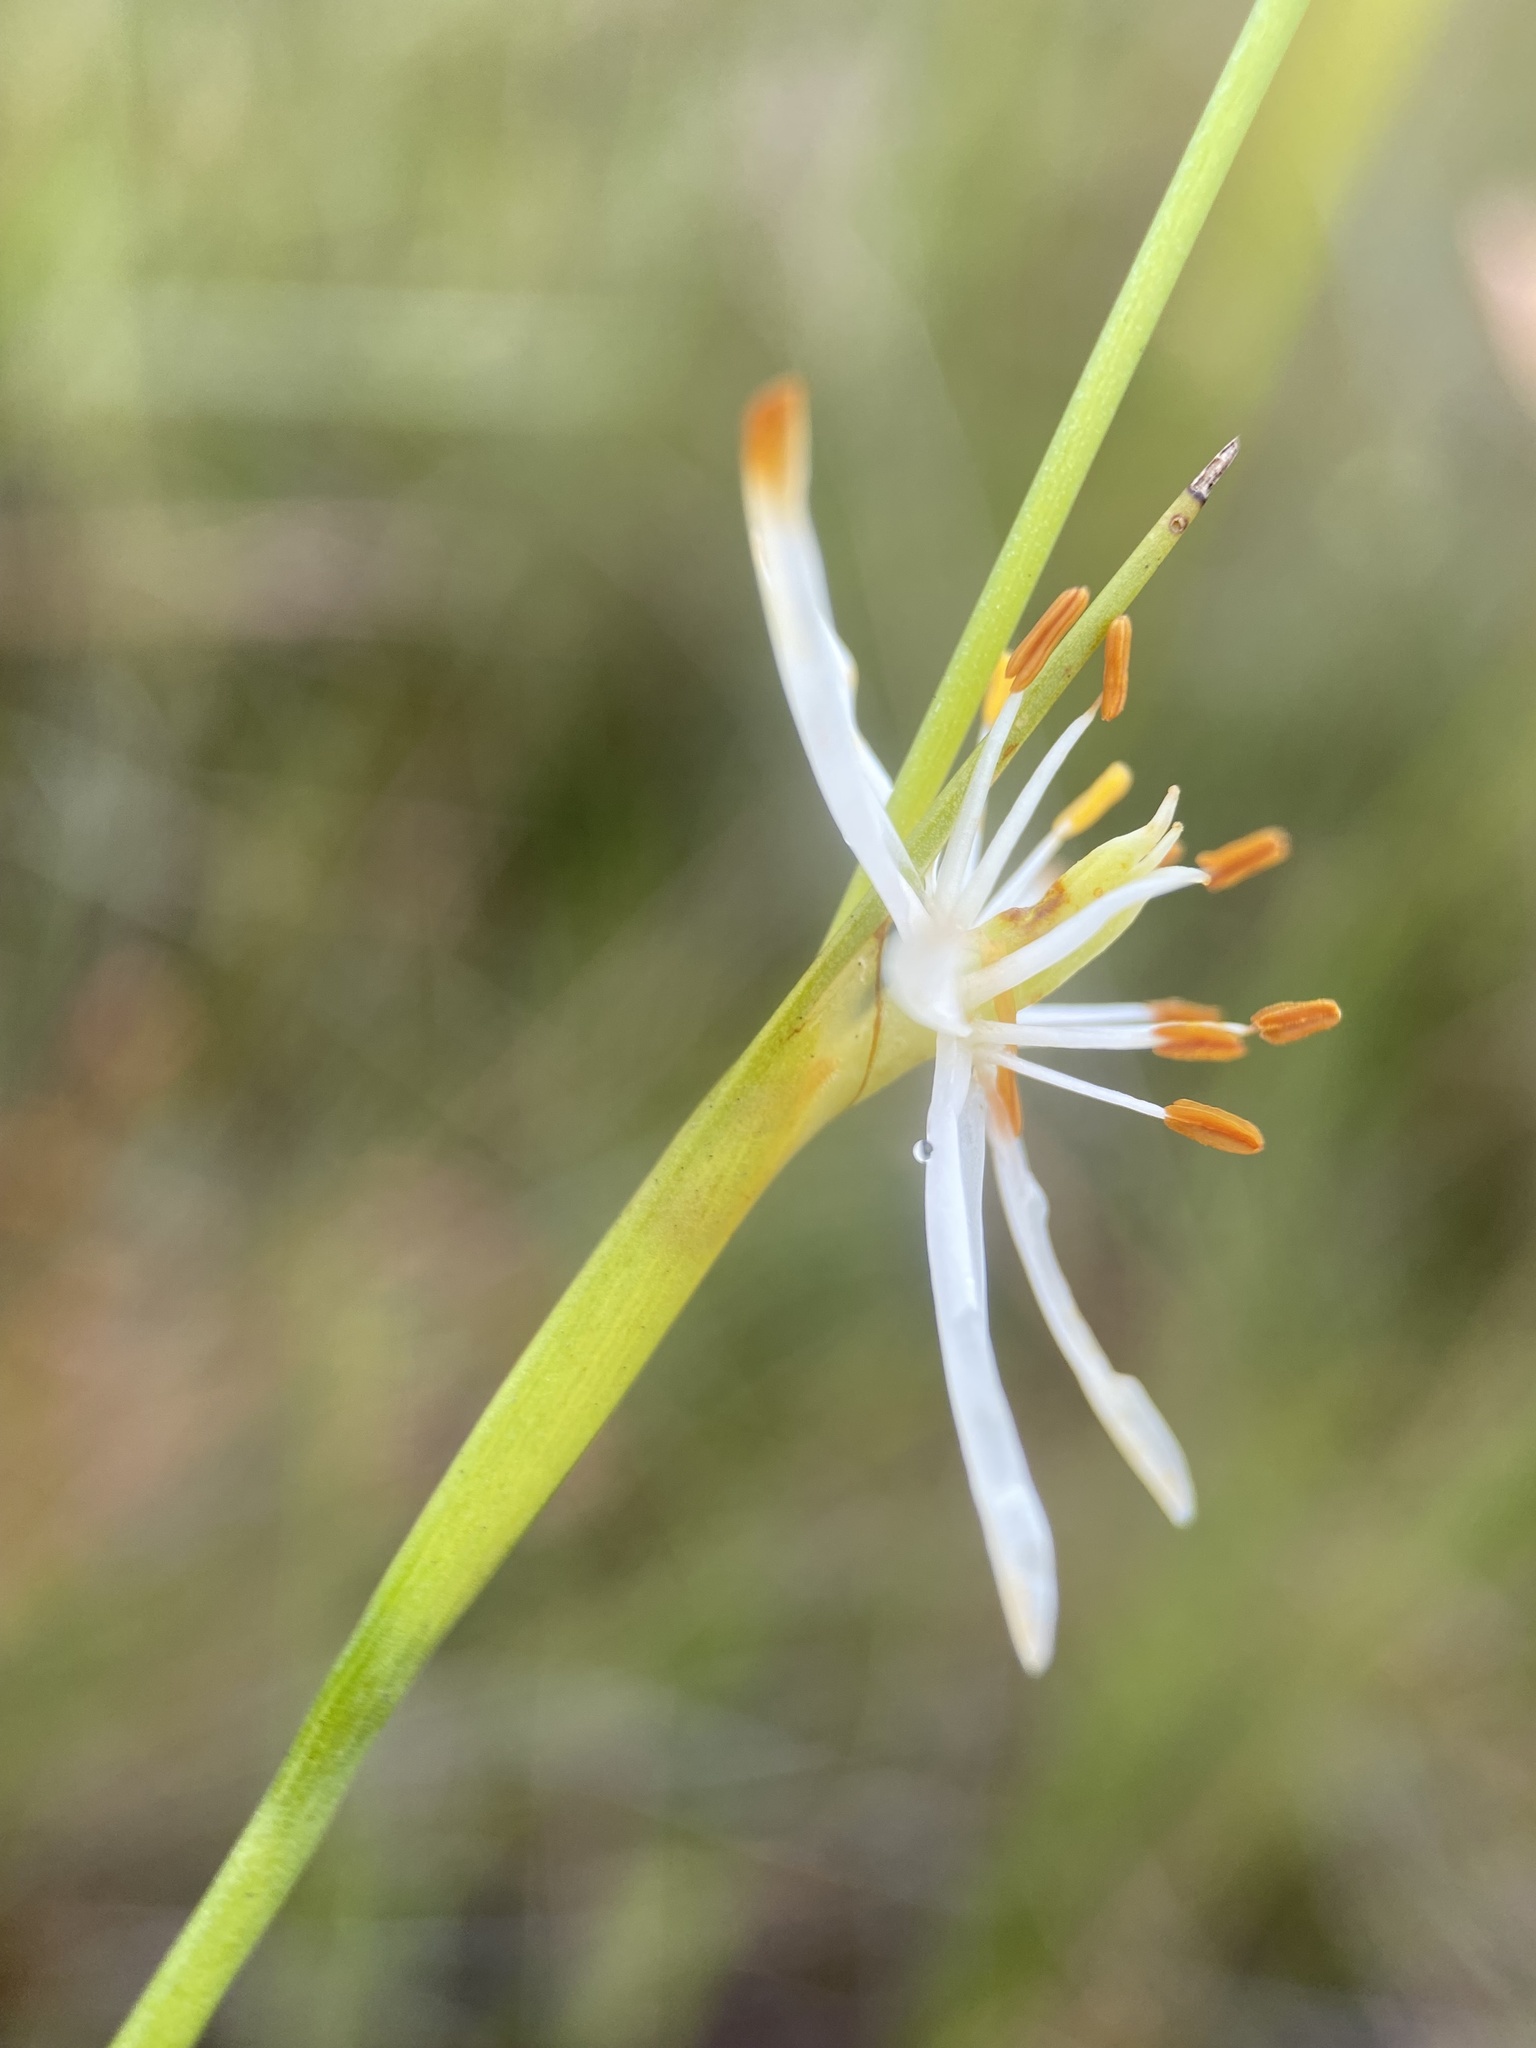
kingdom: Plantae
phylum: Tracheophyta
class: Liliopsida
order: Alismatales
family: Tofieldiaceae
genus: Pleea
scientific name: Pleea tenuifolia
